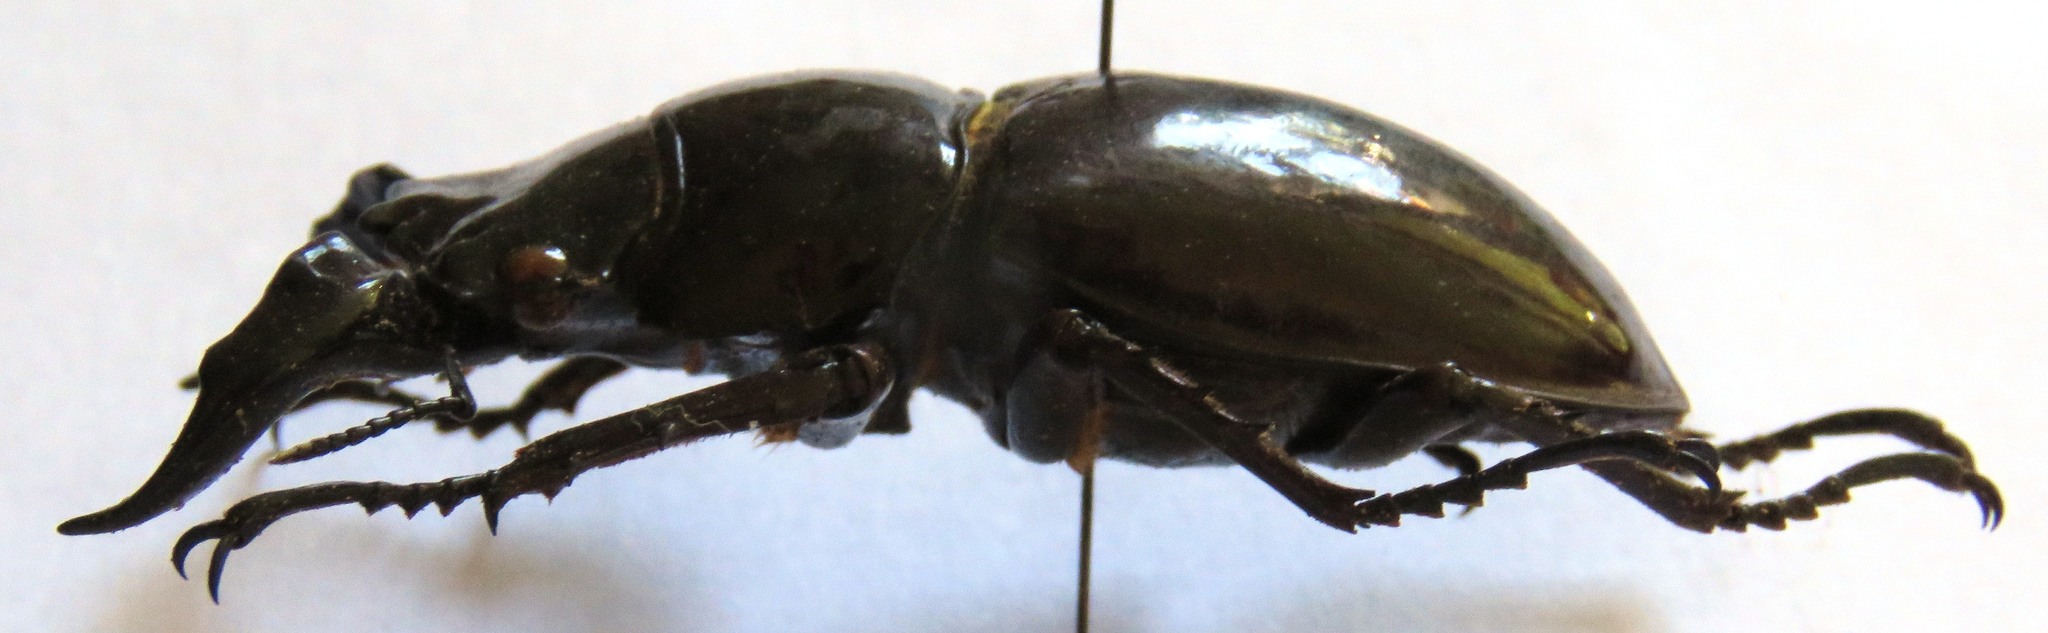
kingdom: Animalia
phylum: Arthropoda
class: Insecta
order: Coleoptera
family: Lucanidae
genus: Mesotopus
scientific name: Mesotopus tarandus
